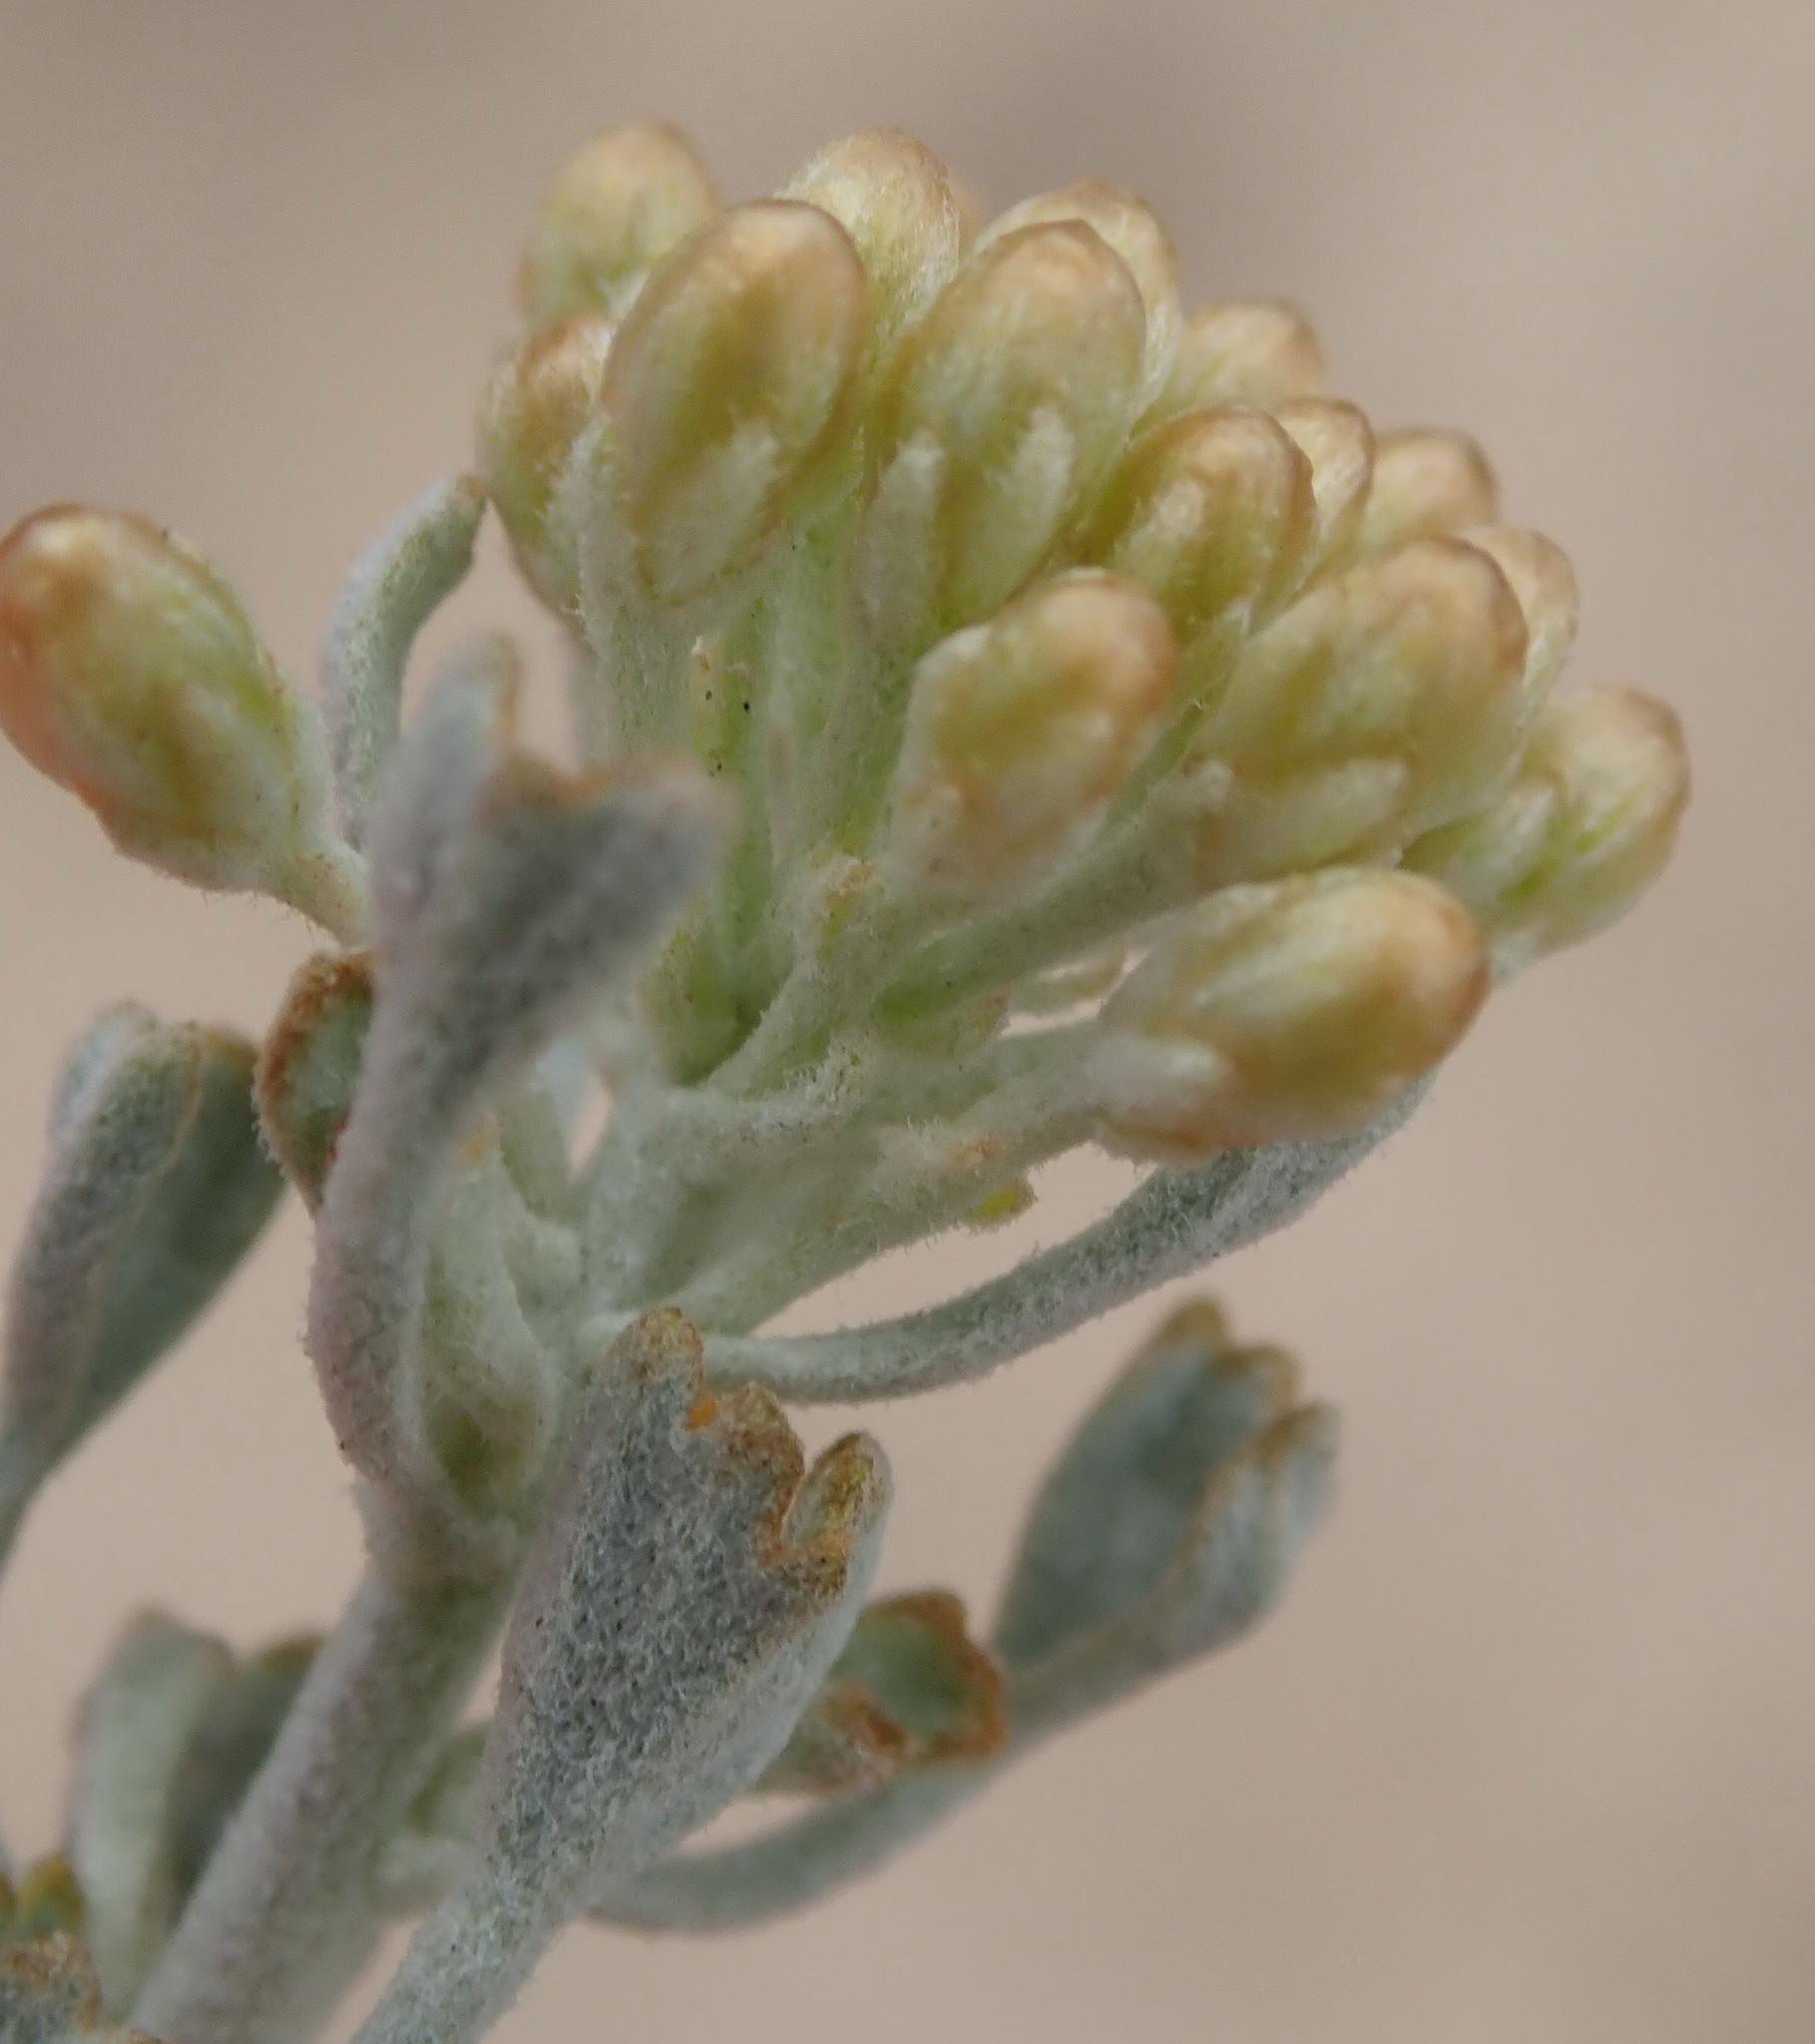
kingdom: Plantae
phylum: Tracheophyta
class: Magnoliopsida
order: Asterales
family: Asteraceae
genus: Pentzia
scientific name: Pentzia dentata
